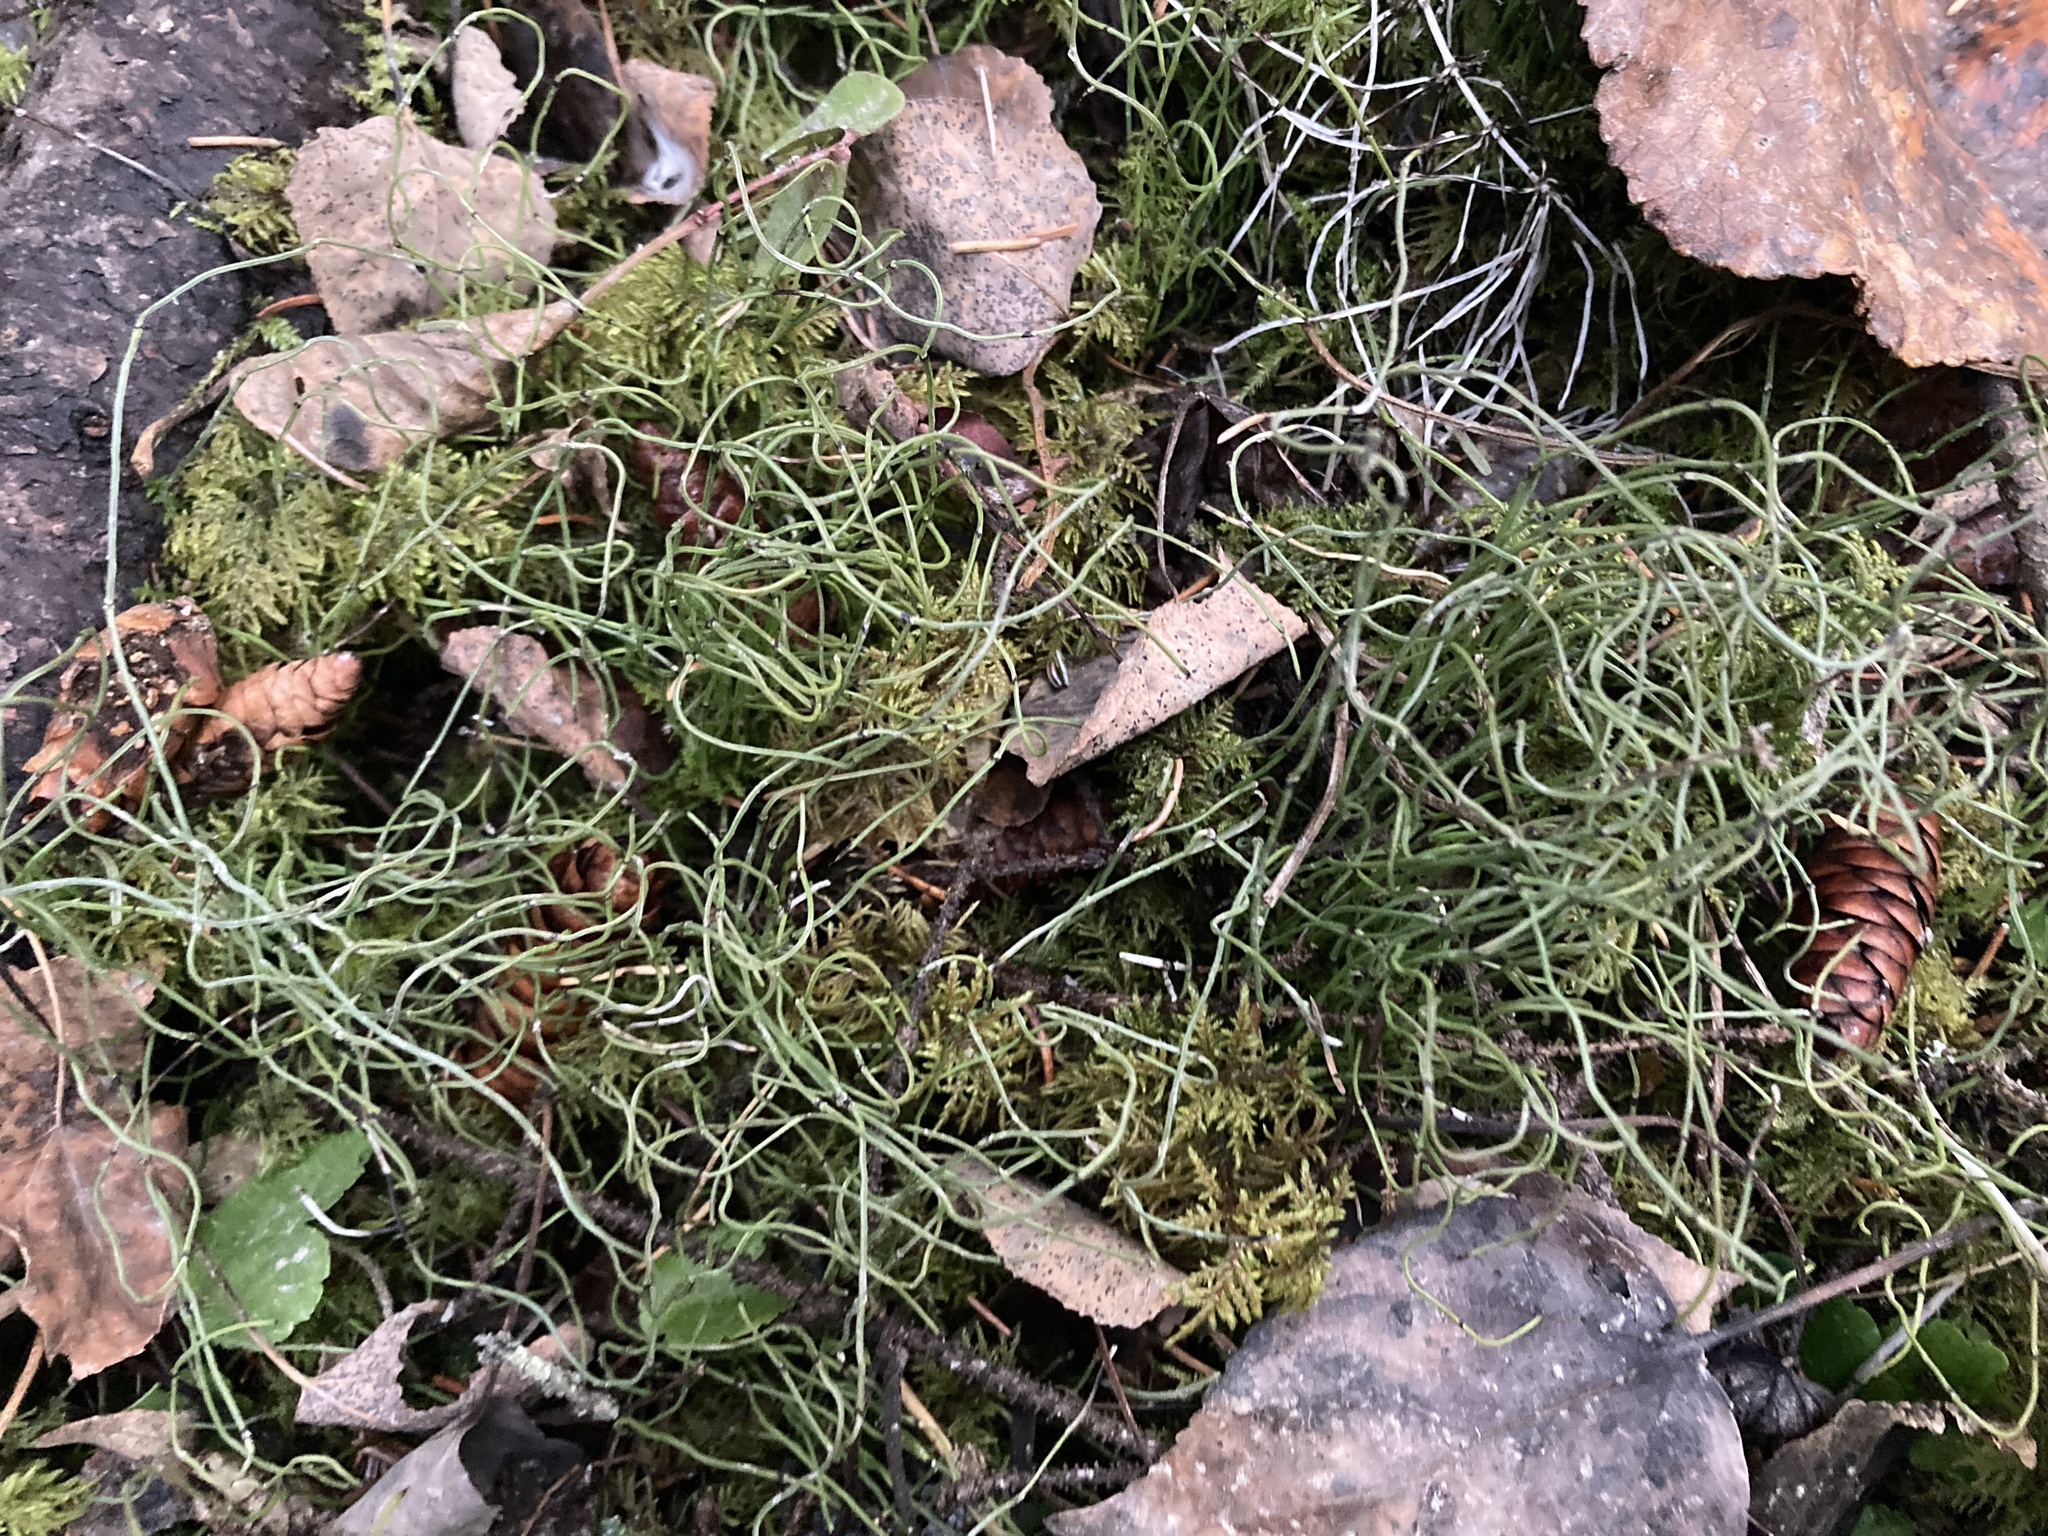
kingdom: Plantae
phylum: Tracheophyta
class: Polypodiopsida
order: Equisetales
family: Equisetaceae
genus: Equisetum
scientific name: Equisetum scirpoides
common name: Delicate horsetail
